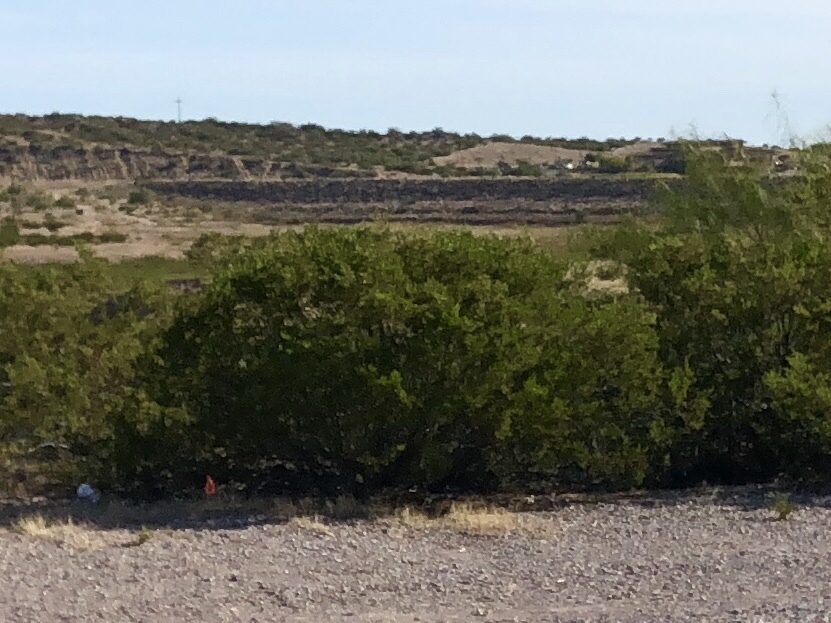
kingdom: Plantae
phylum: Tracheophyta
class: Magnoliopsida
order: Zygophyllales
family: Zygophyllaceae
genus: Larrea
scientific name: Larrea tridentata
